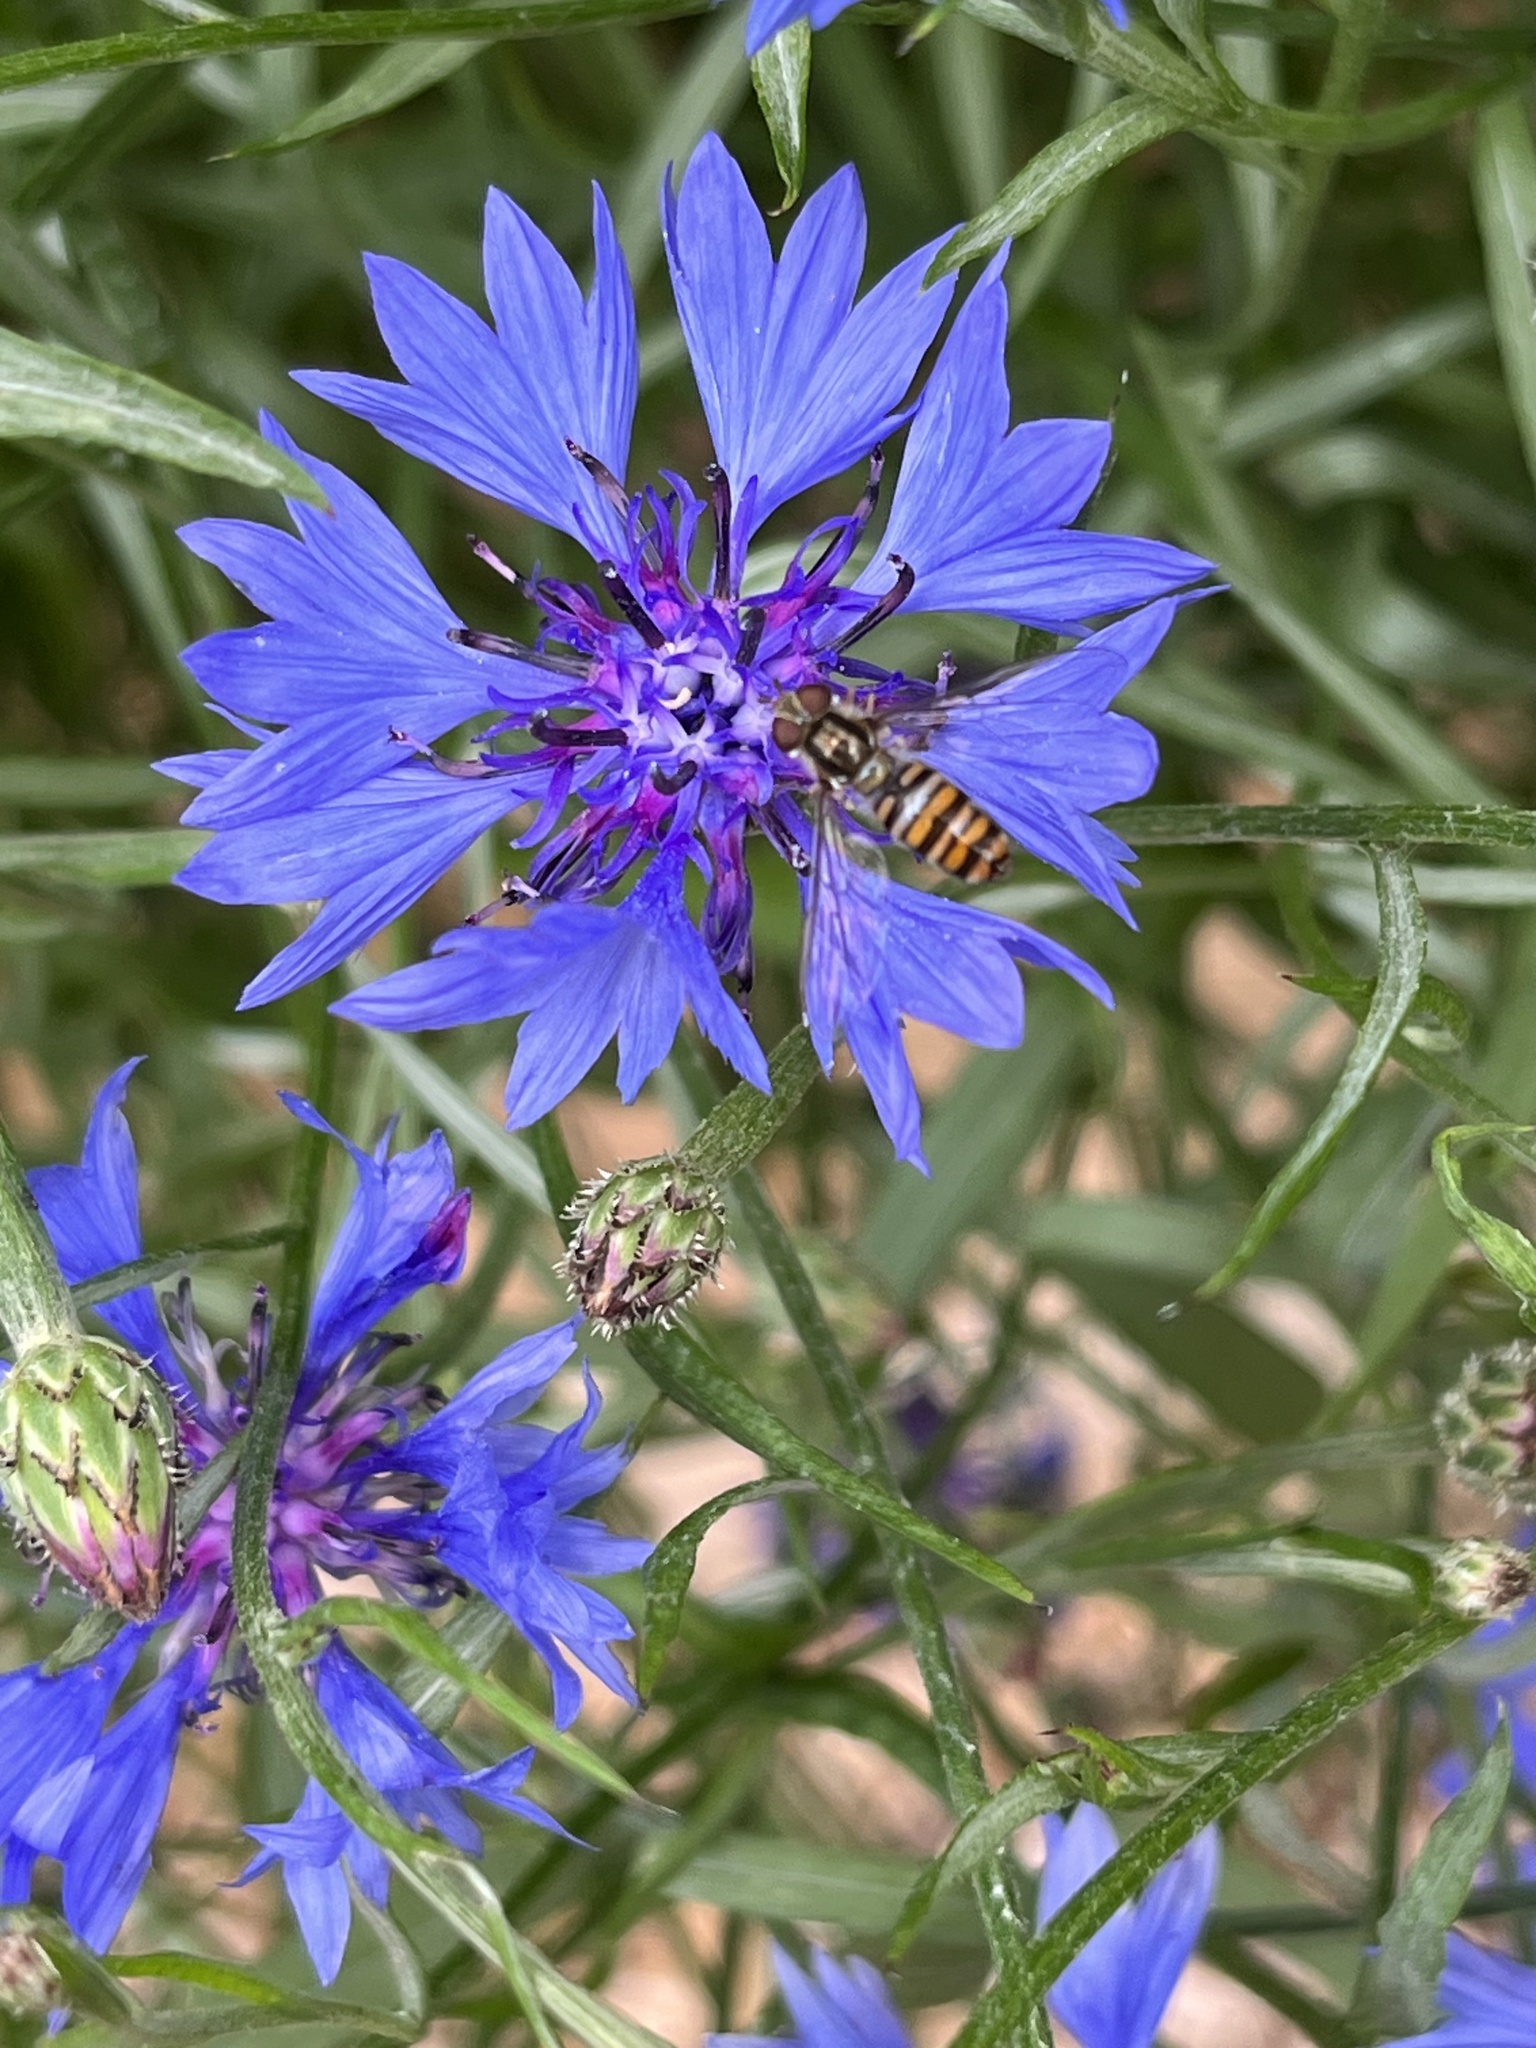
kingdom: Animalia
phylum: Arthropoda
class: Insecta
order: Diptera
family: Syrphidae
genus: Episyrphus
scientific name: Episyrphus balteatus
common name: Marmalade hoverfly
